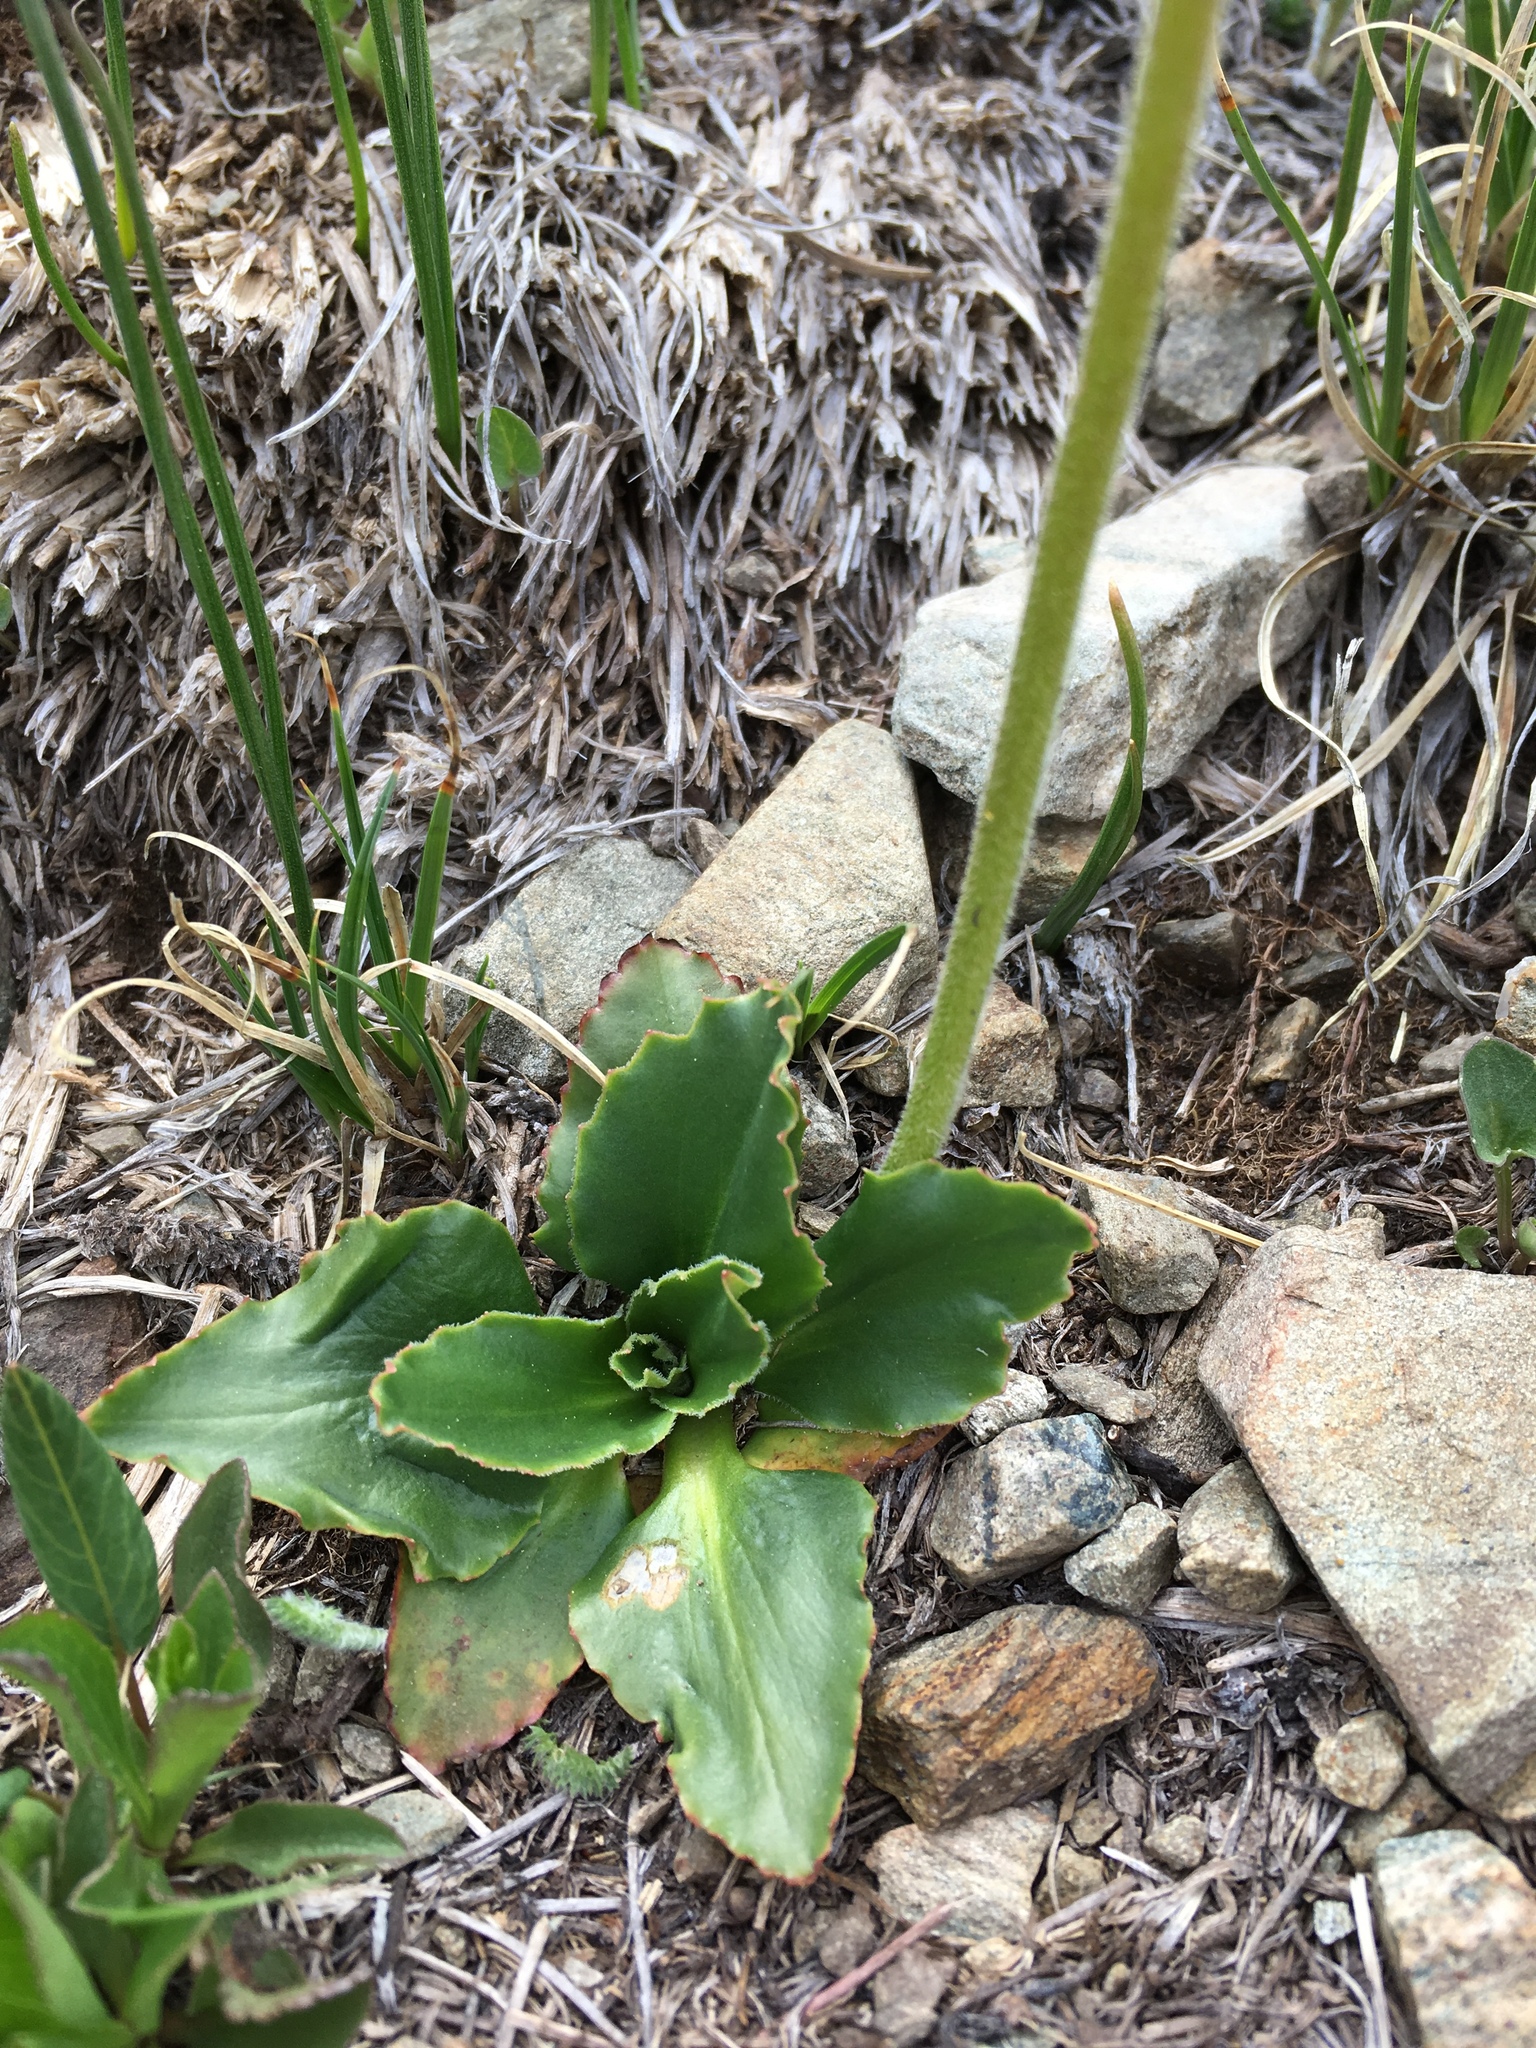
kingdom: Plantae
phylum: Tracheophyta
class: Magnoliopsida
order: Saxifragales
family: Saxifragaceae
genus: Micranthes
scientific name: Micranthes rhomboidea
